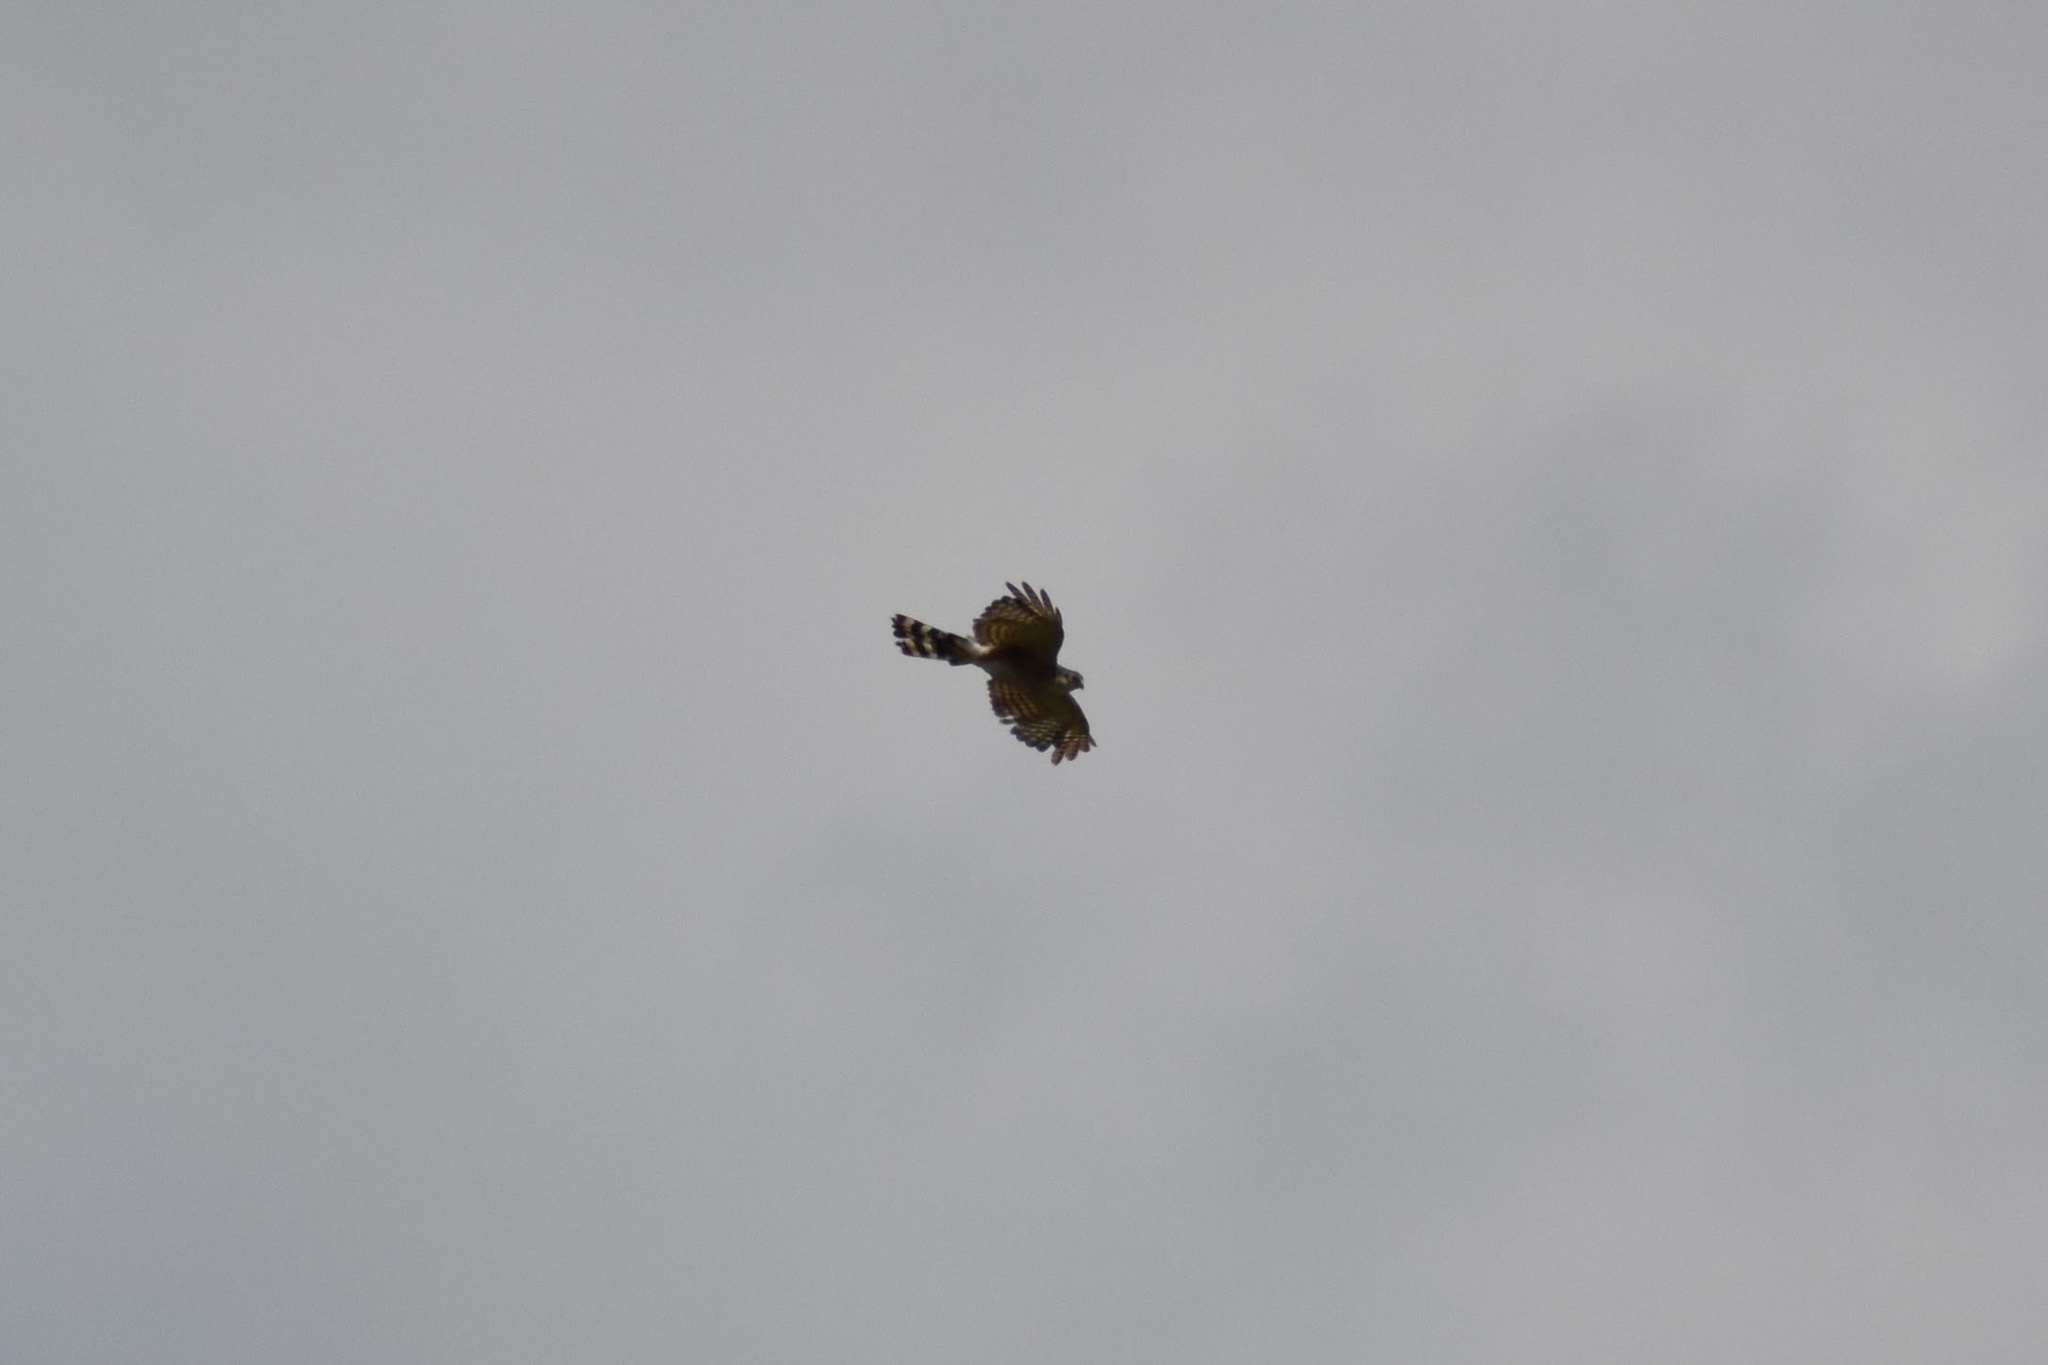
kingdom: Animalia
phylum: Chordata
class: Aves
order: Falconiformes
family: Falconidae
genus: Spiziapteryx
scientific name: Spiziapteryx circumcincta
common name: Spot-winged falconet
